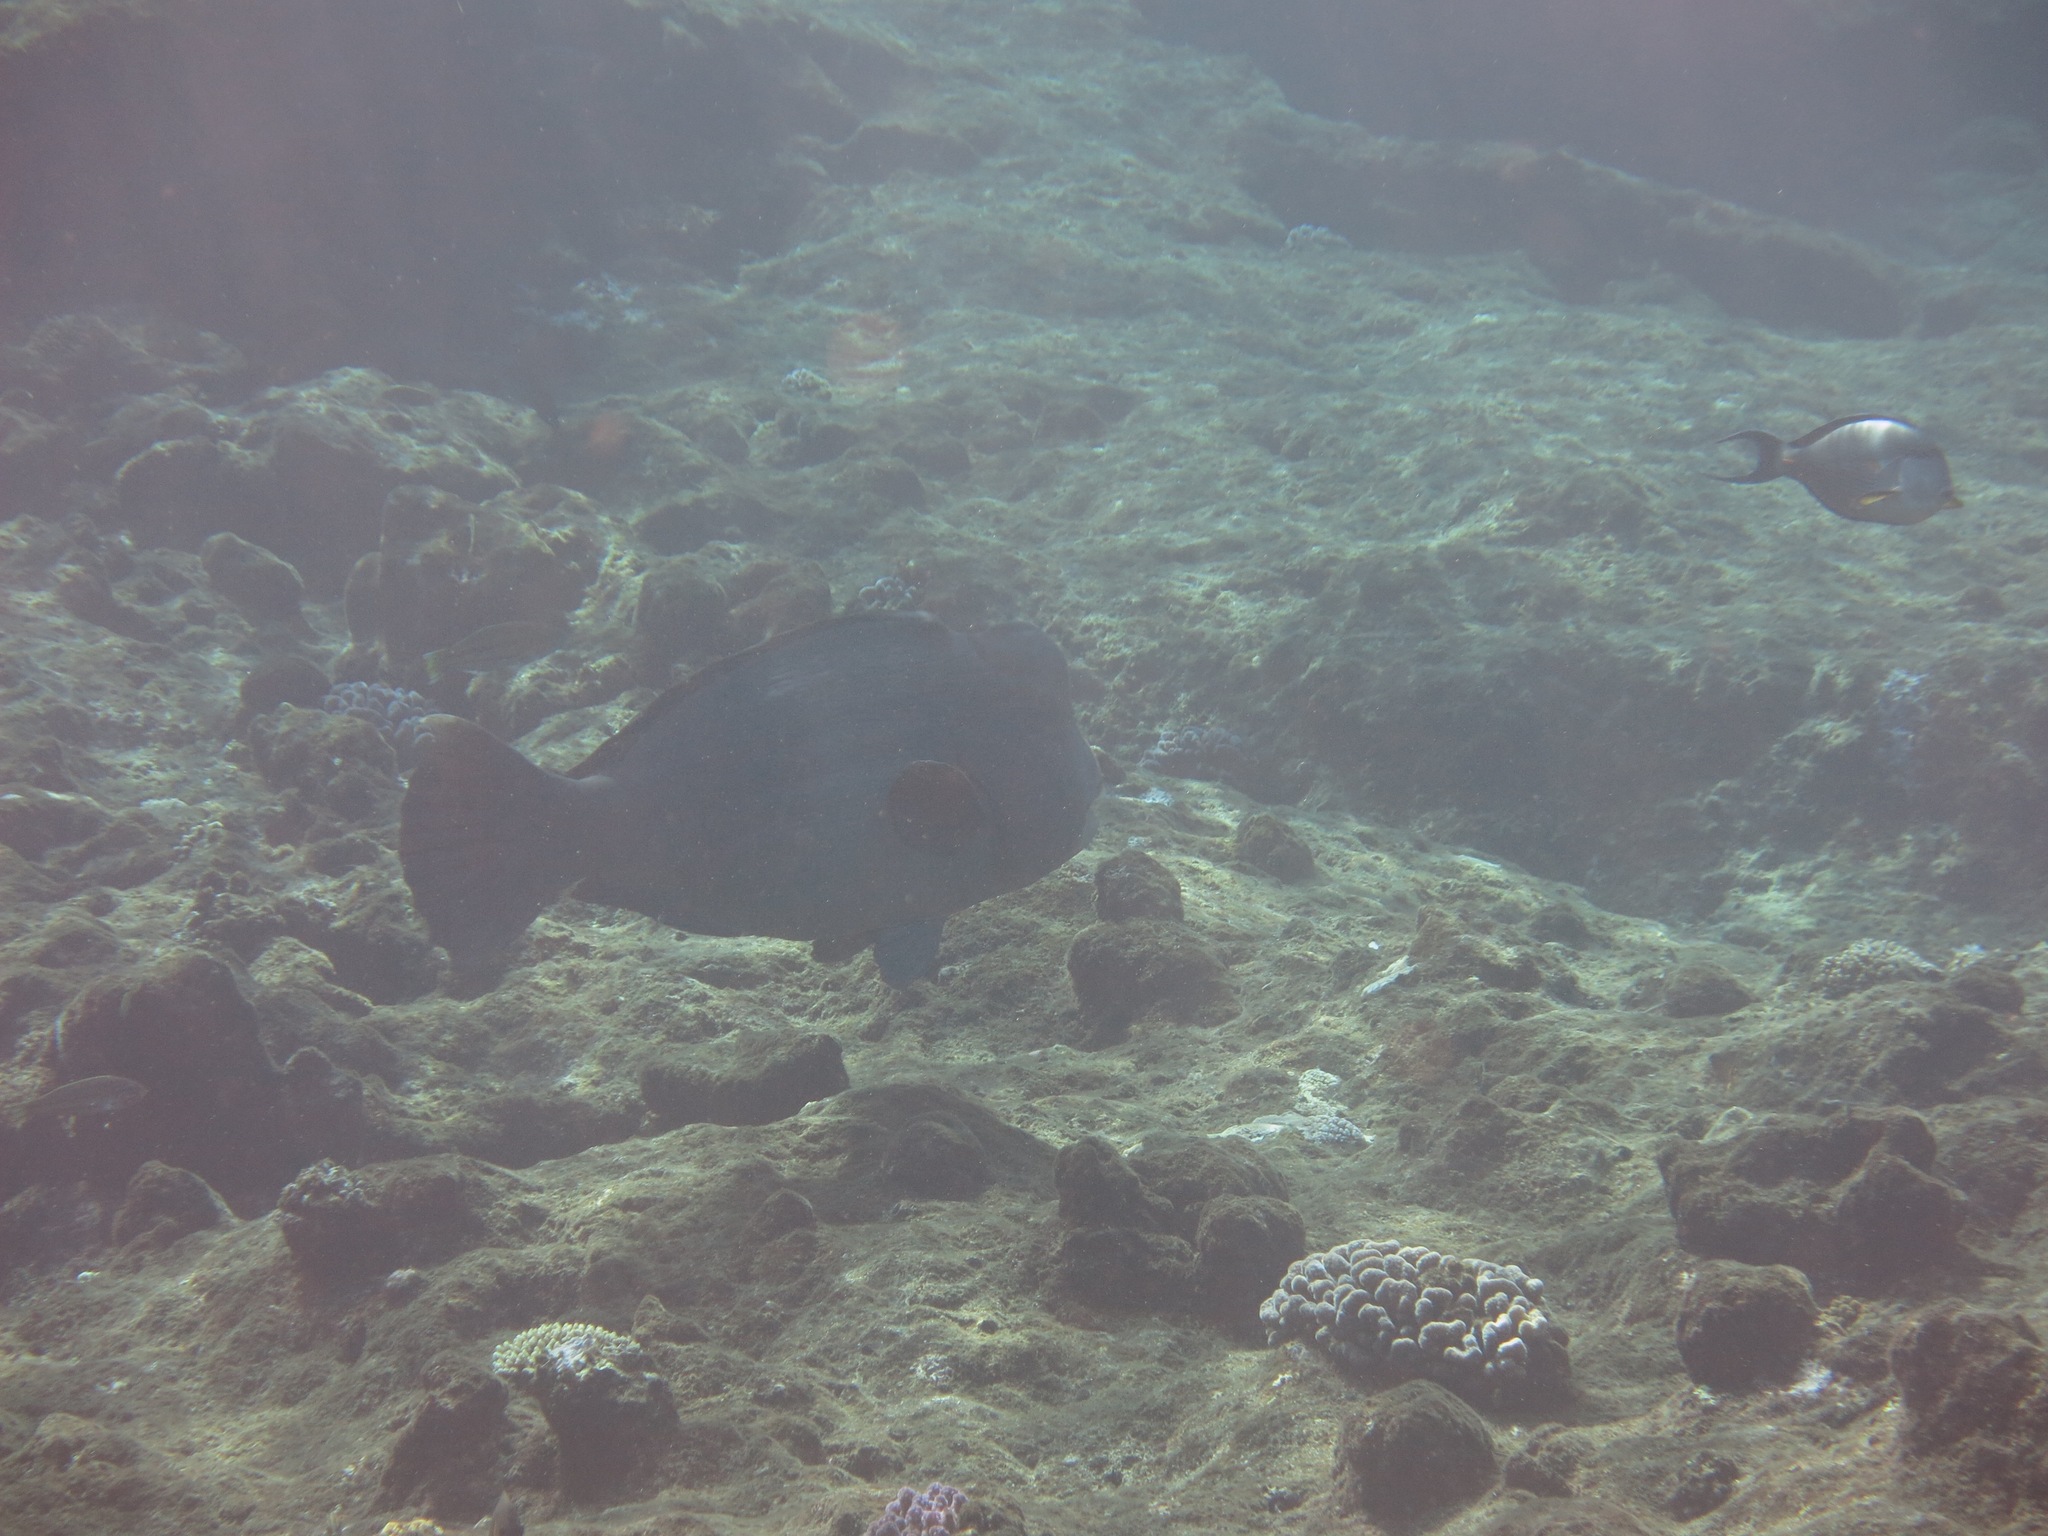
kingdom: Animalia
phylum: Chordata
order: Perciformes
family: Scaridae
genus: Bolbometopon
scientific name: Bolbometopon muricatum
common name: Humphead parrotfish
